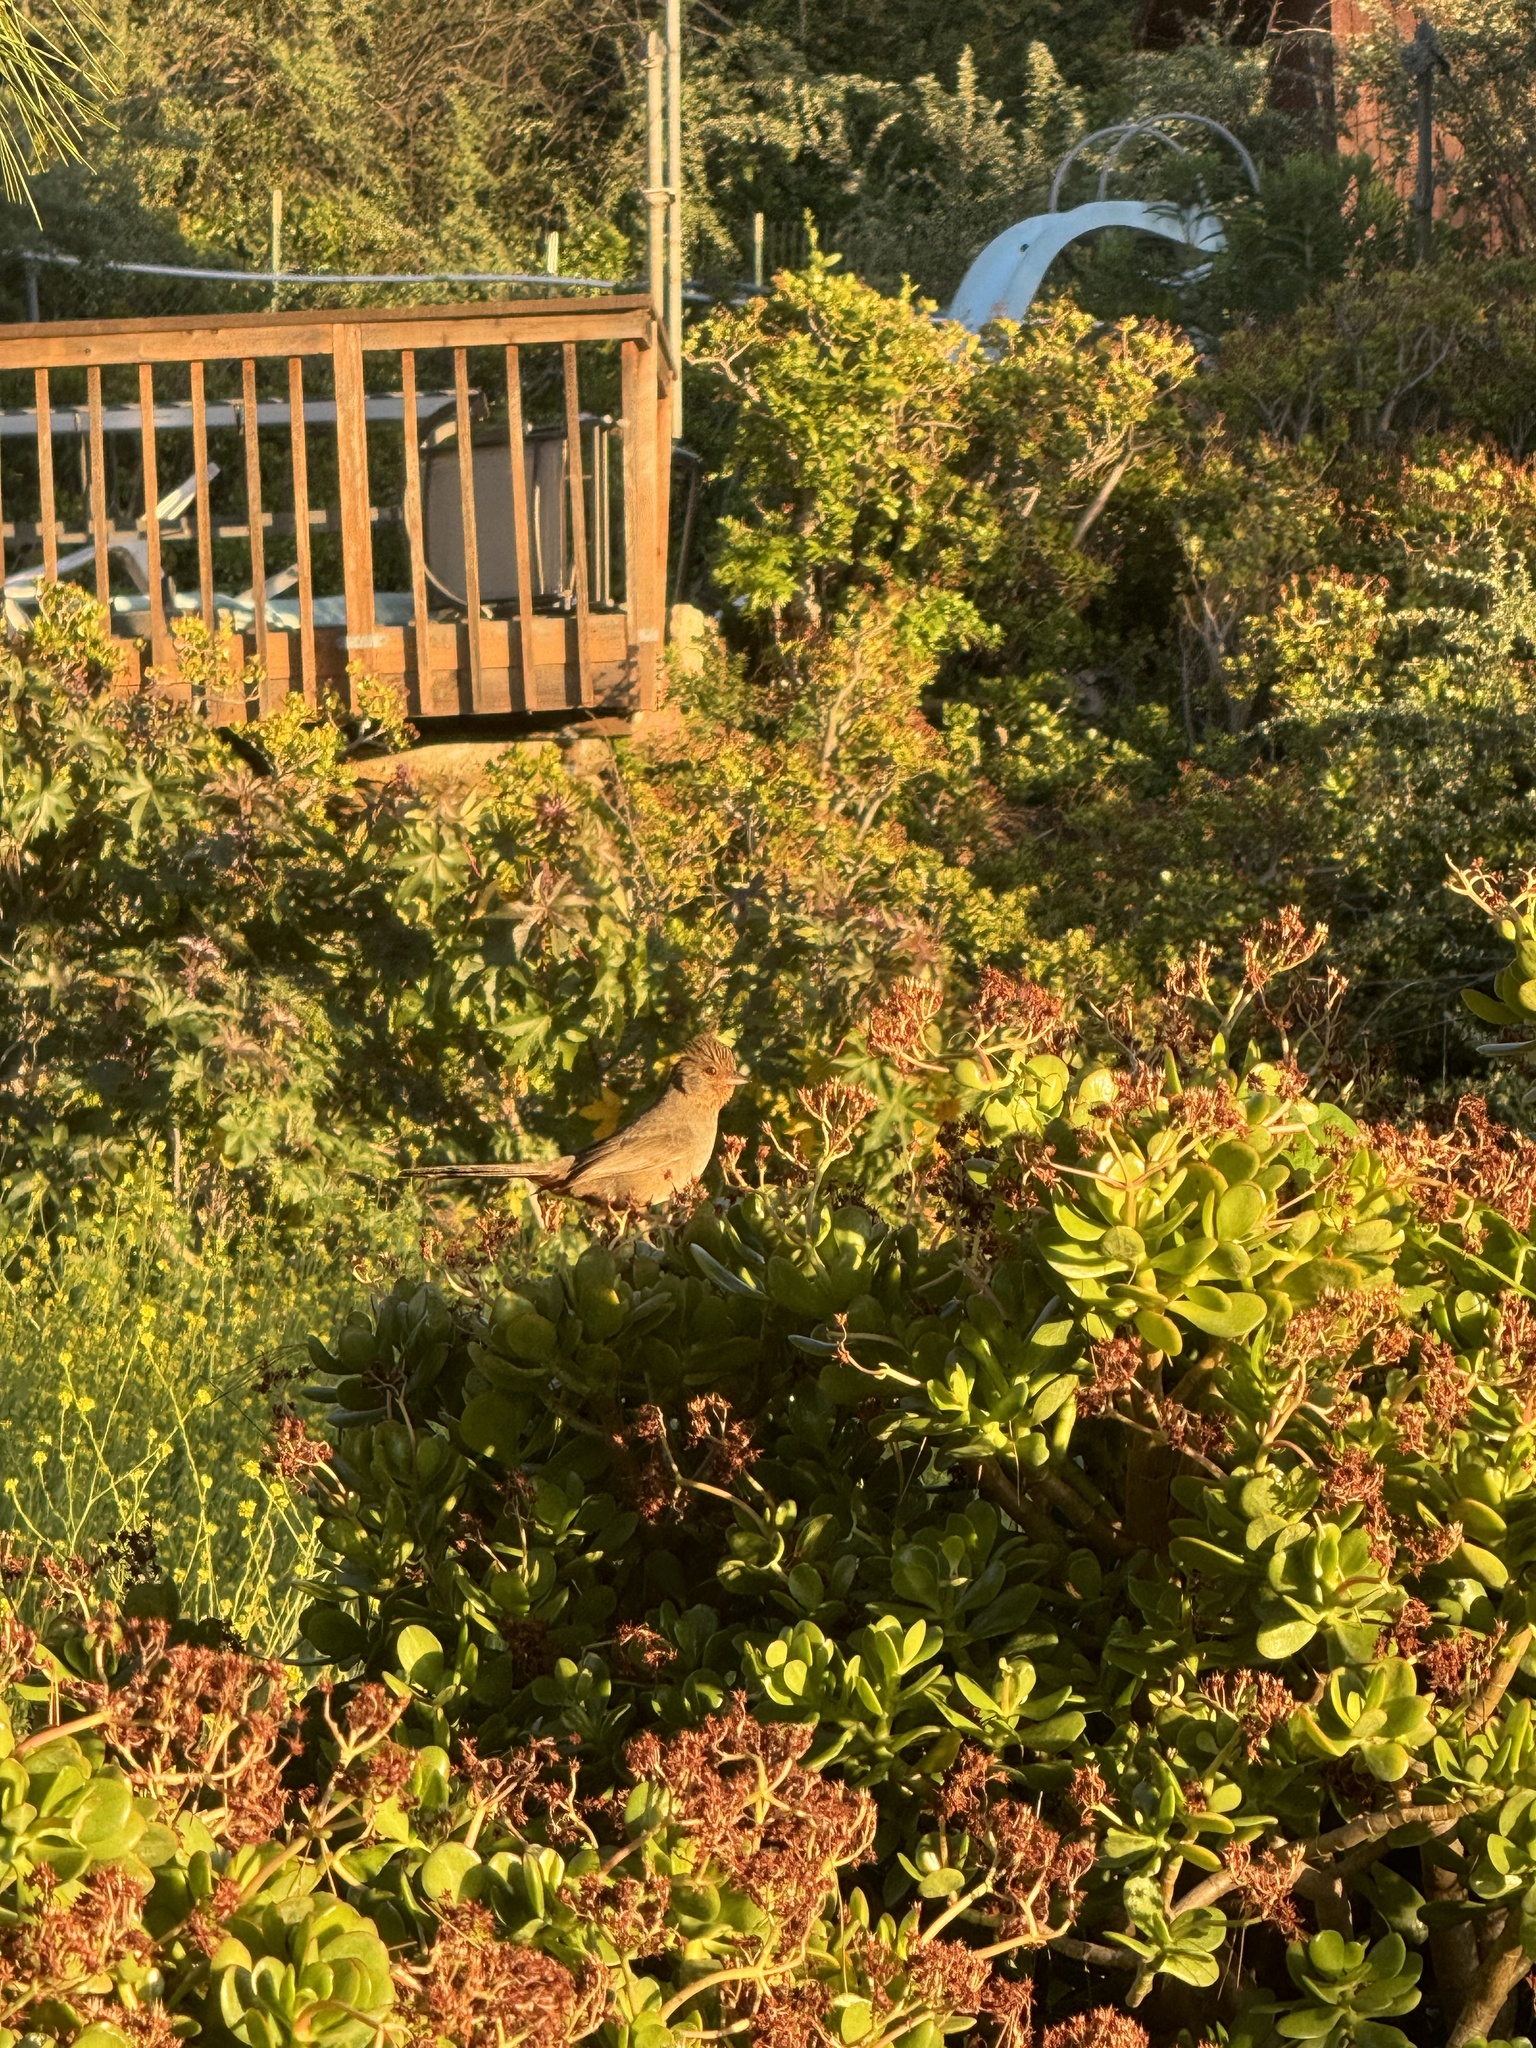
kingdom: Animalia
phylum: Chordata
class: Aves
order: Passeriformes
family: Passerellidae
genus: Melozone
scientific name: Melozone crissalis
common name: California towhee
